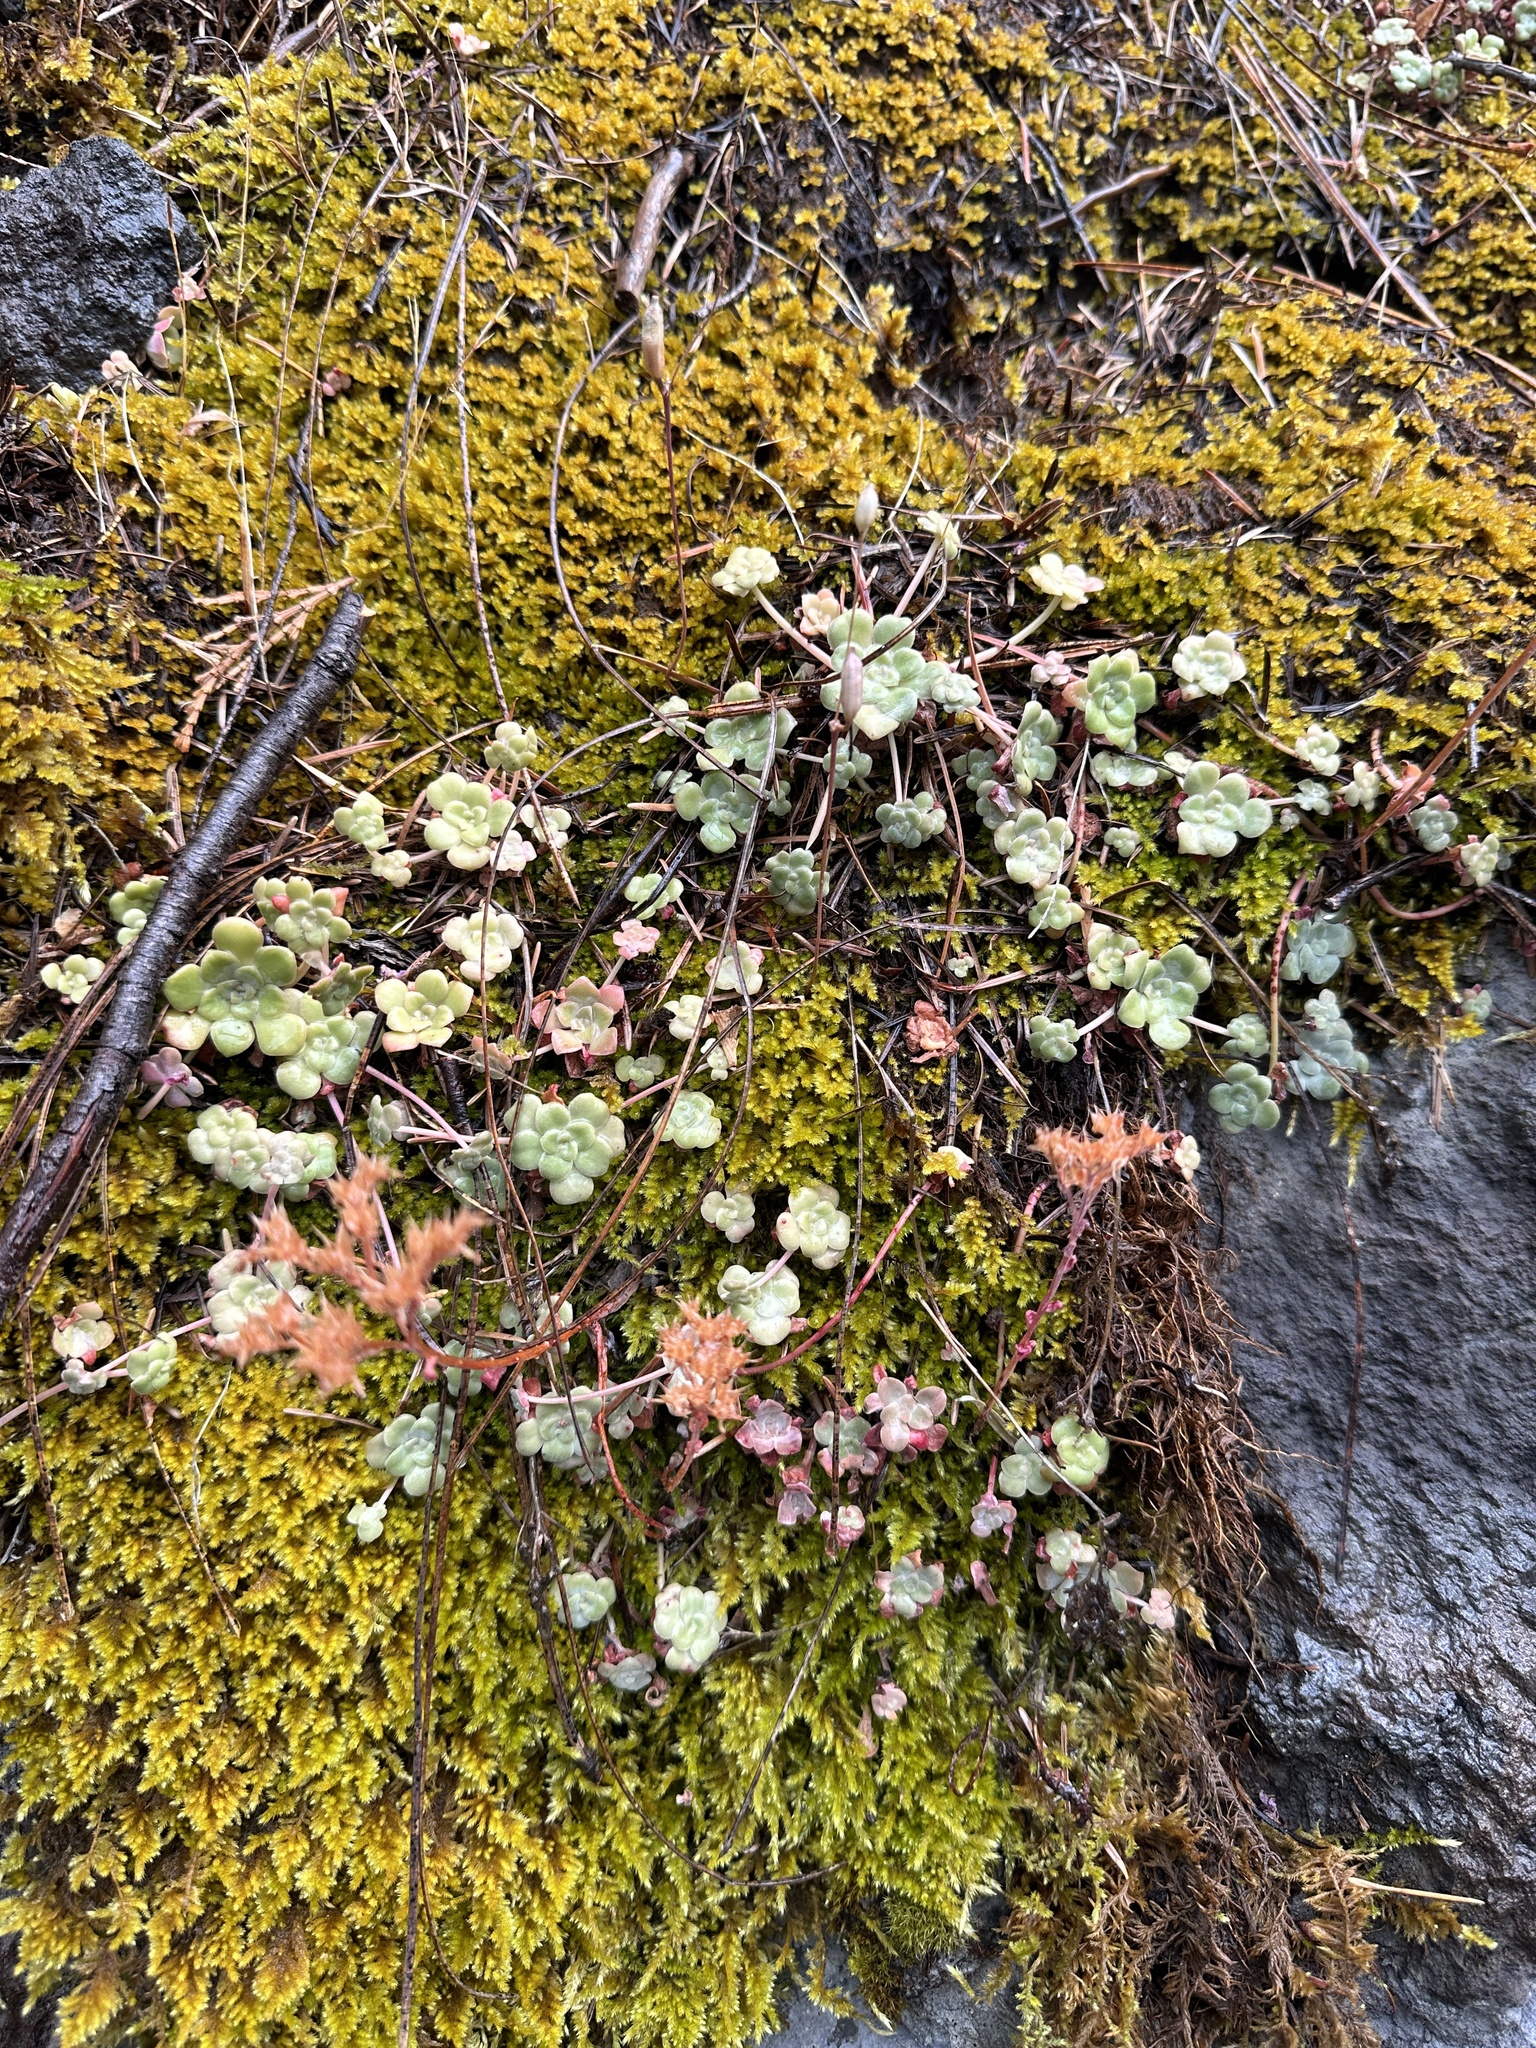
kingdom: Plantae
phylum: Tracheophyta
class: Magnoliopsida
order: Saxifragales
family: Crassulaceae
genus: Sedum
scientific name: Sedum spathulifolium
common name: Colorado stonecrop
